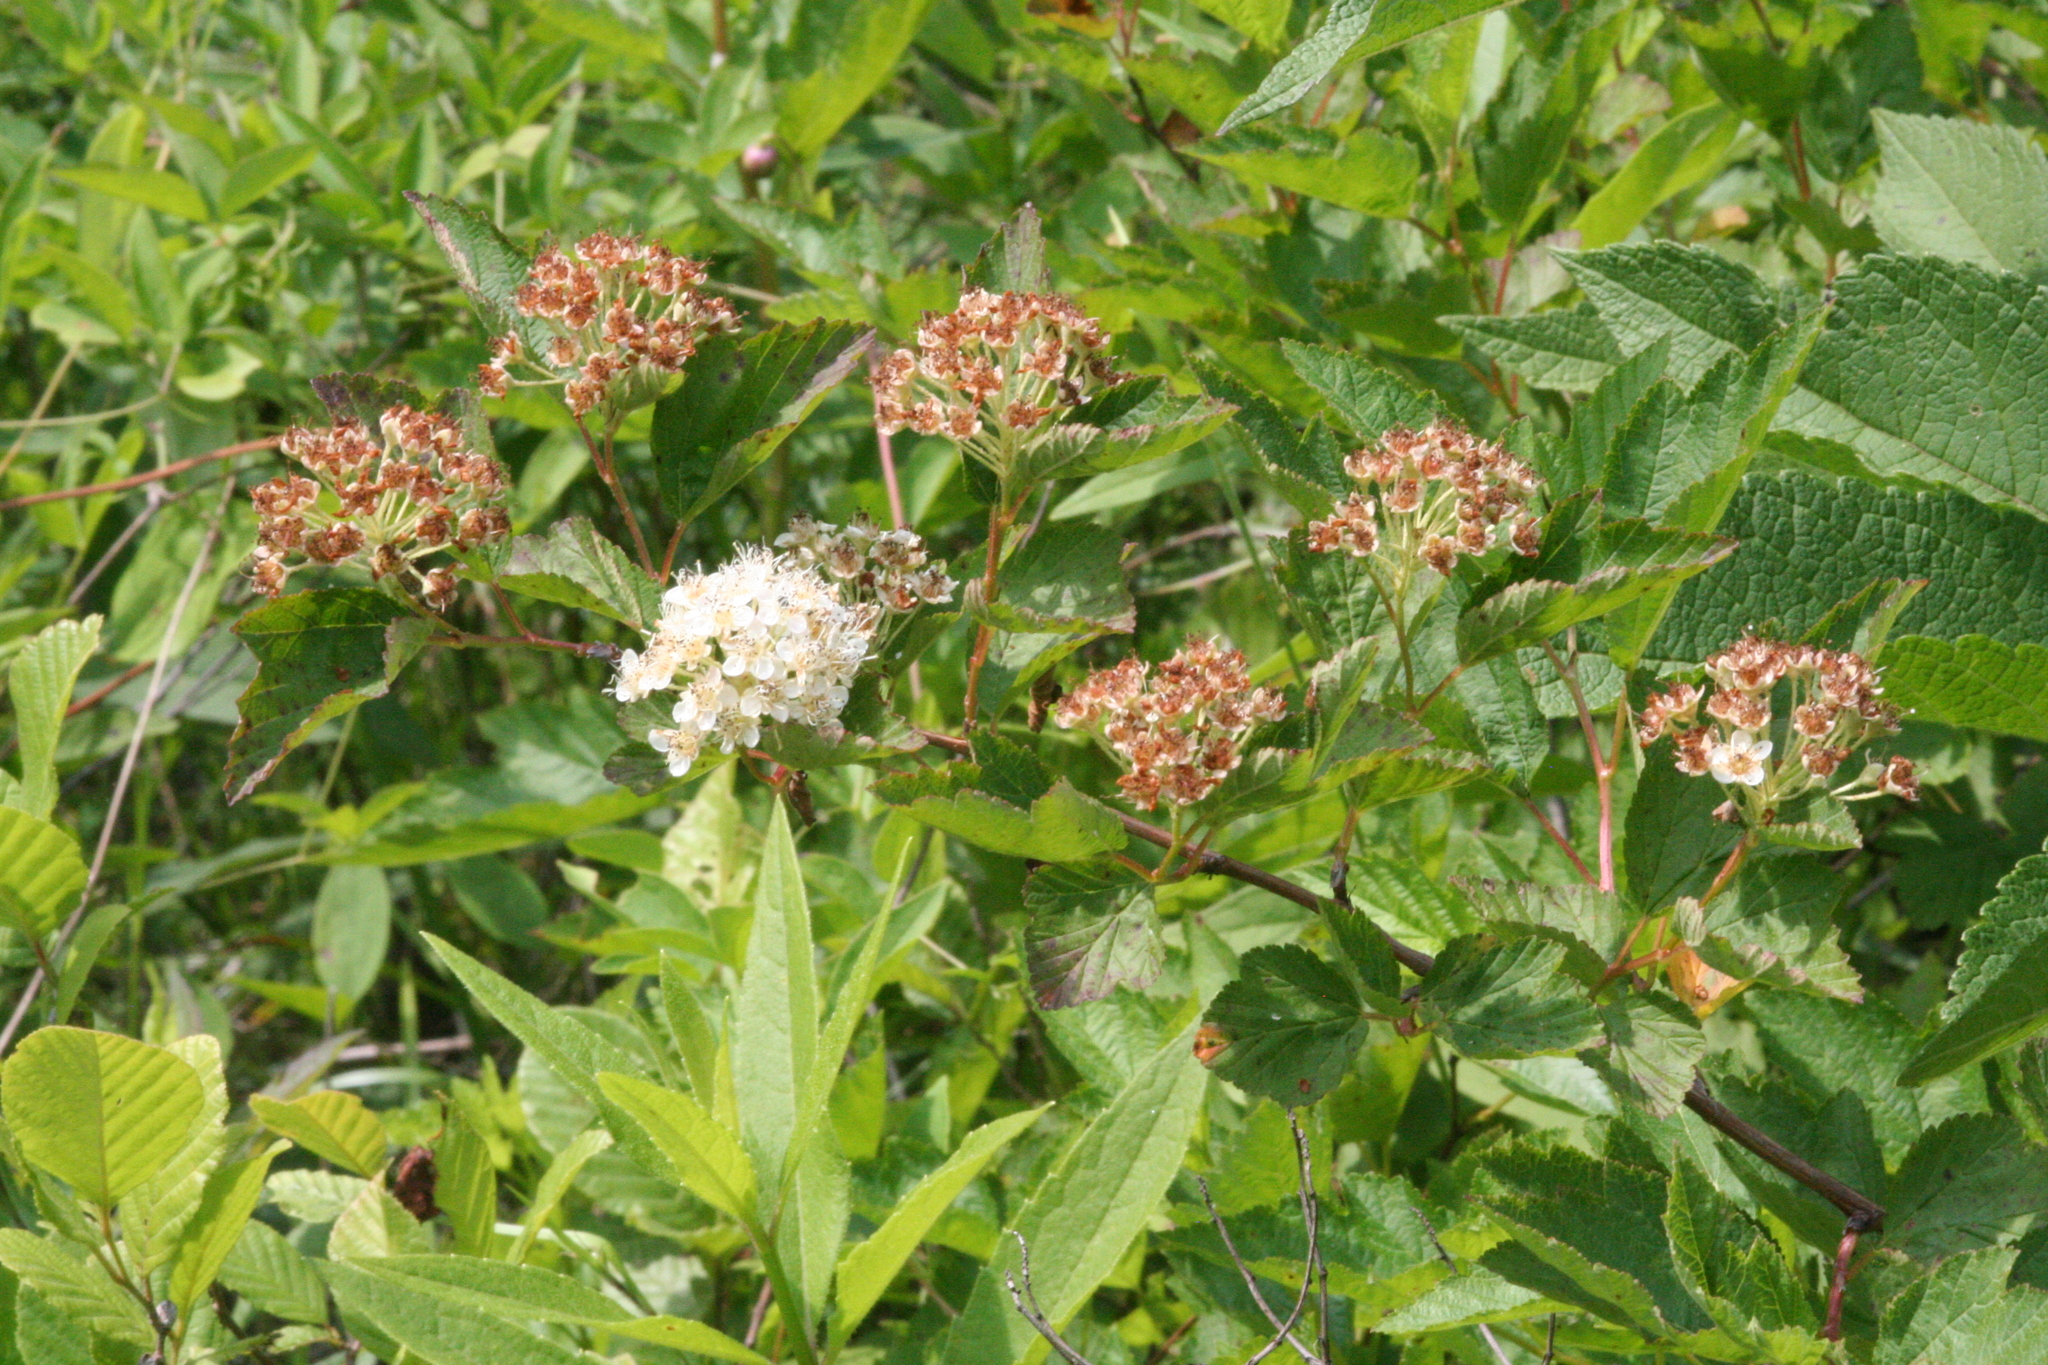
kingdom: Plantae
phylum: Tracheophyta
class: Magnoliopsida
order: Rosales
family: Rosaceae
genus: Physocarpus
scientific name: Physocarpus opulifolius
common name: Ninebark
